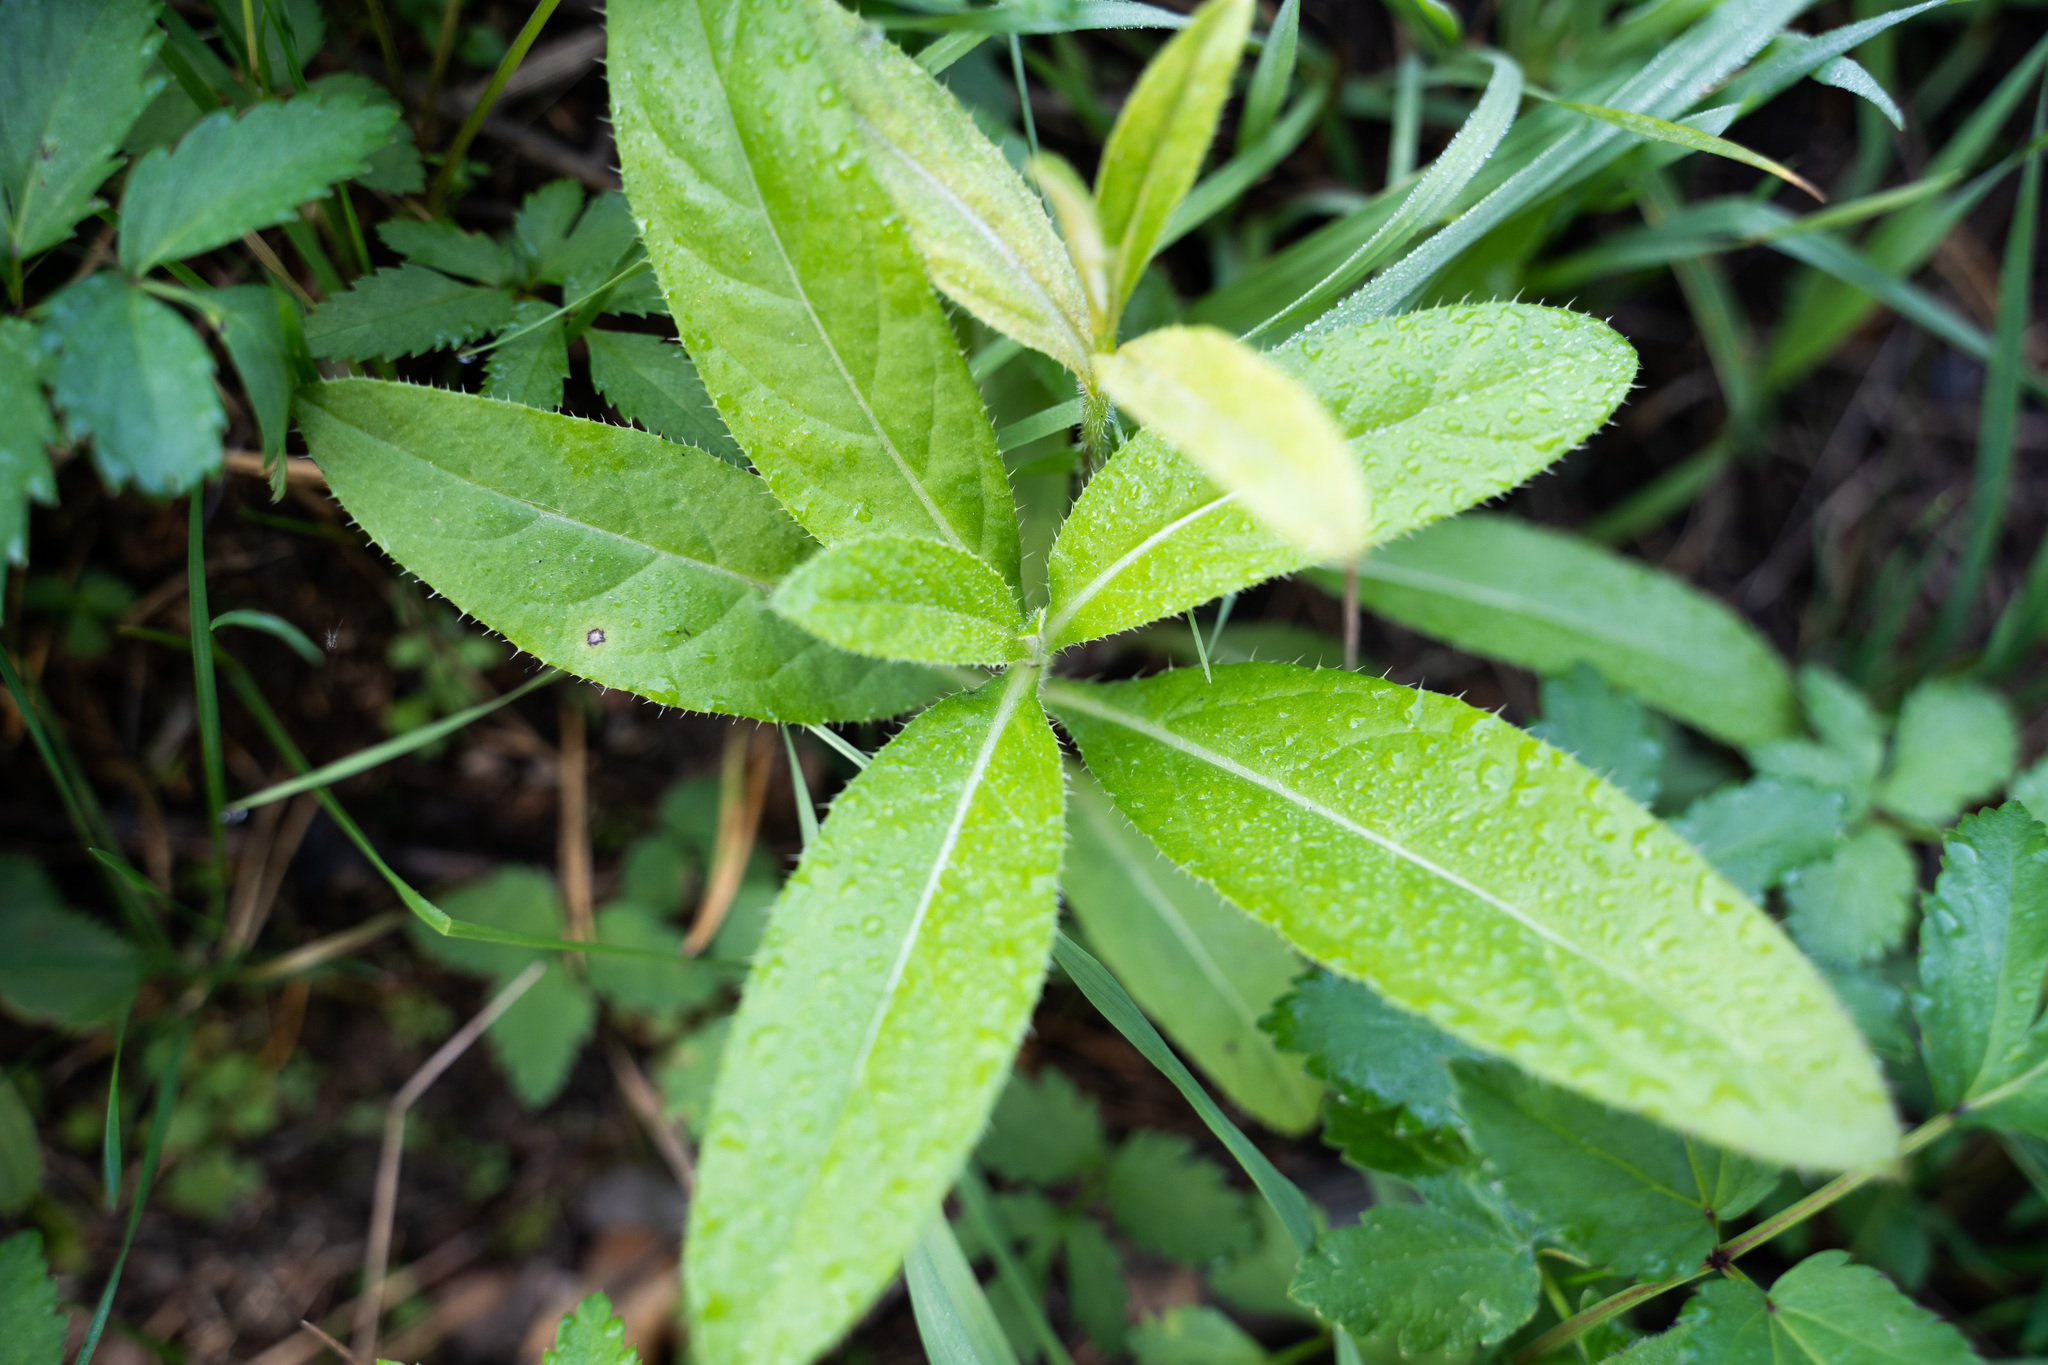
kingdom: Plantae
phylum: Tracheophyta
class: Magnoliopsida
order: Asterales
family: Asteraceae
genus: Cirsium
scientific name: Cirsium arvense
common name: Creeping thistle
